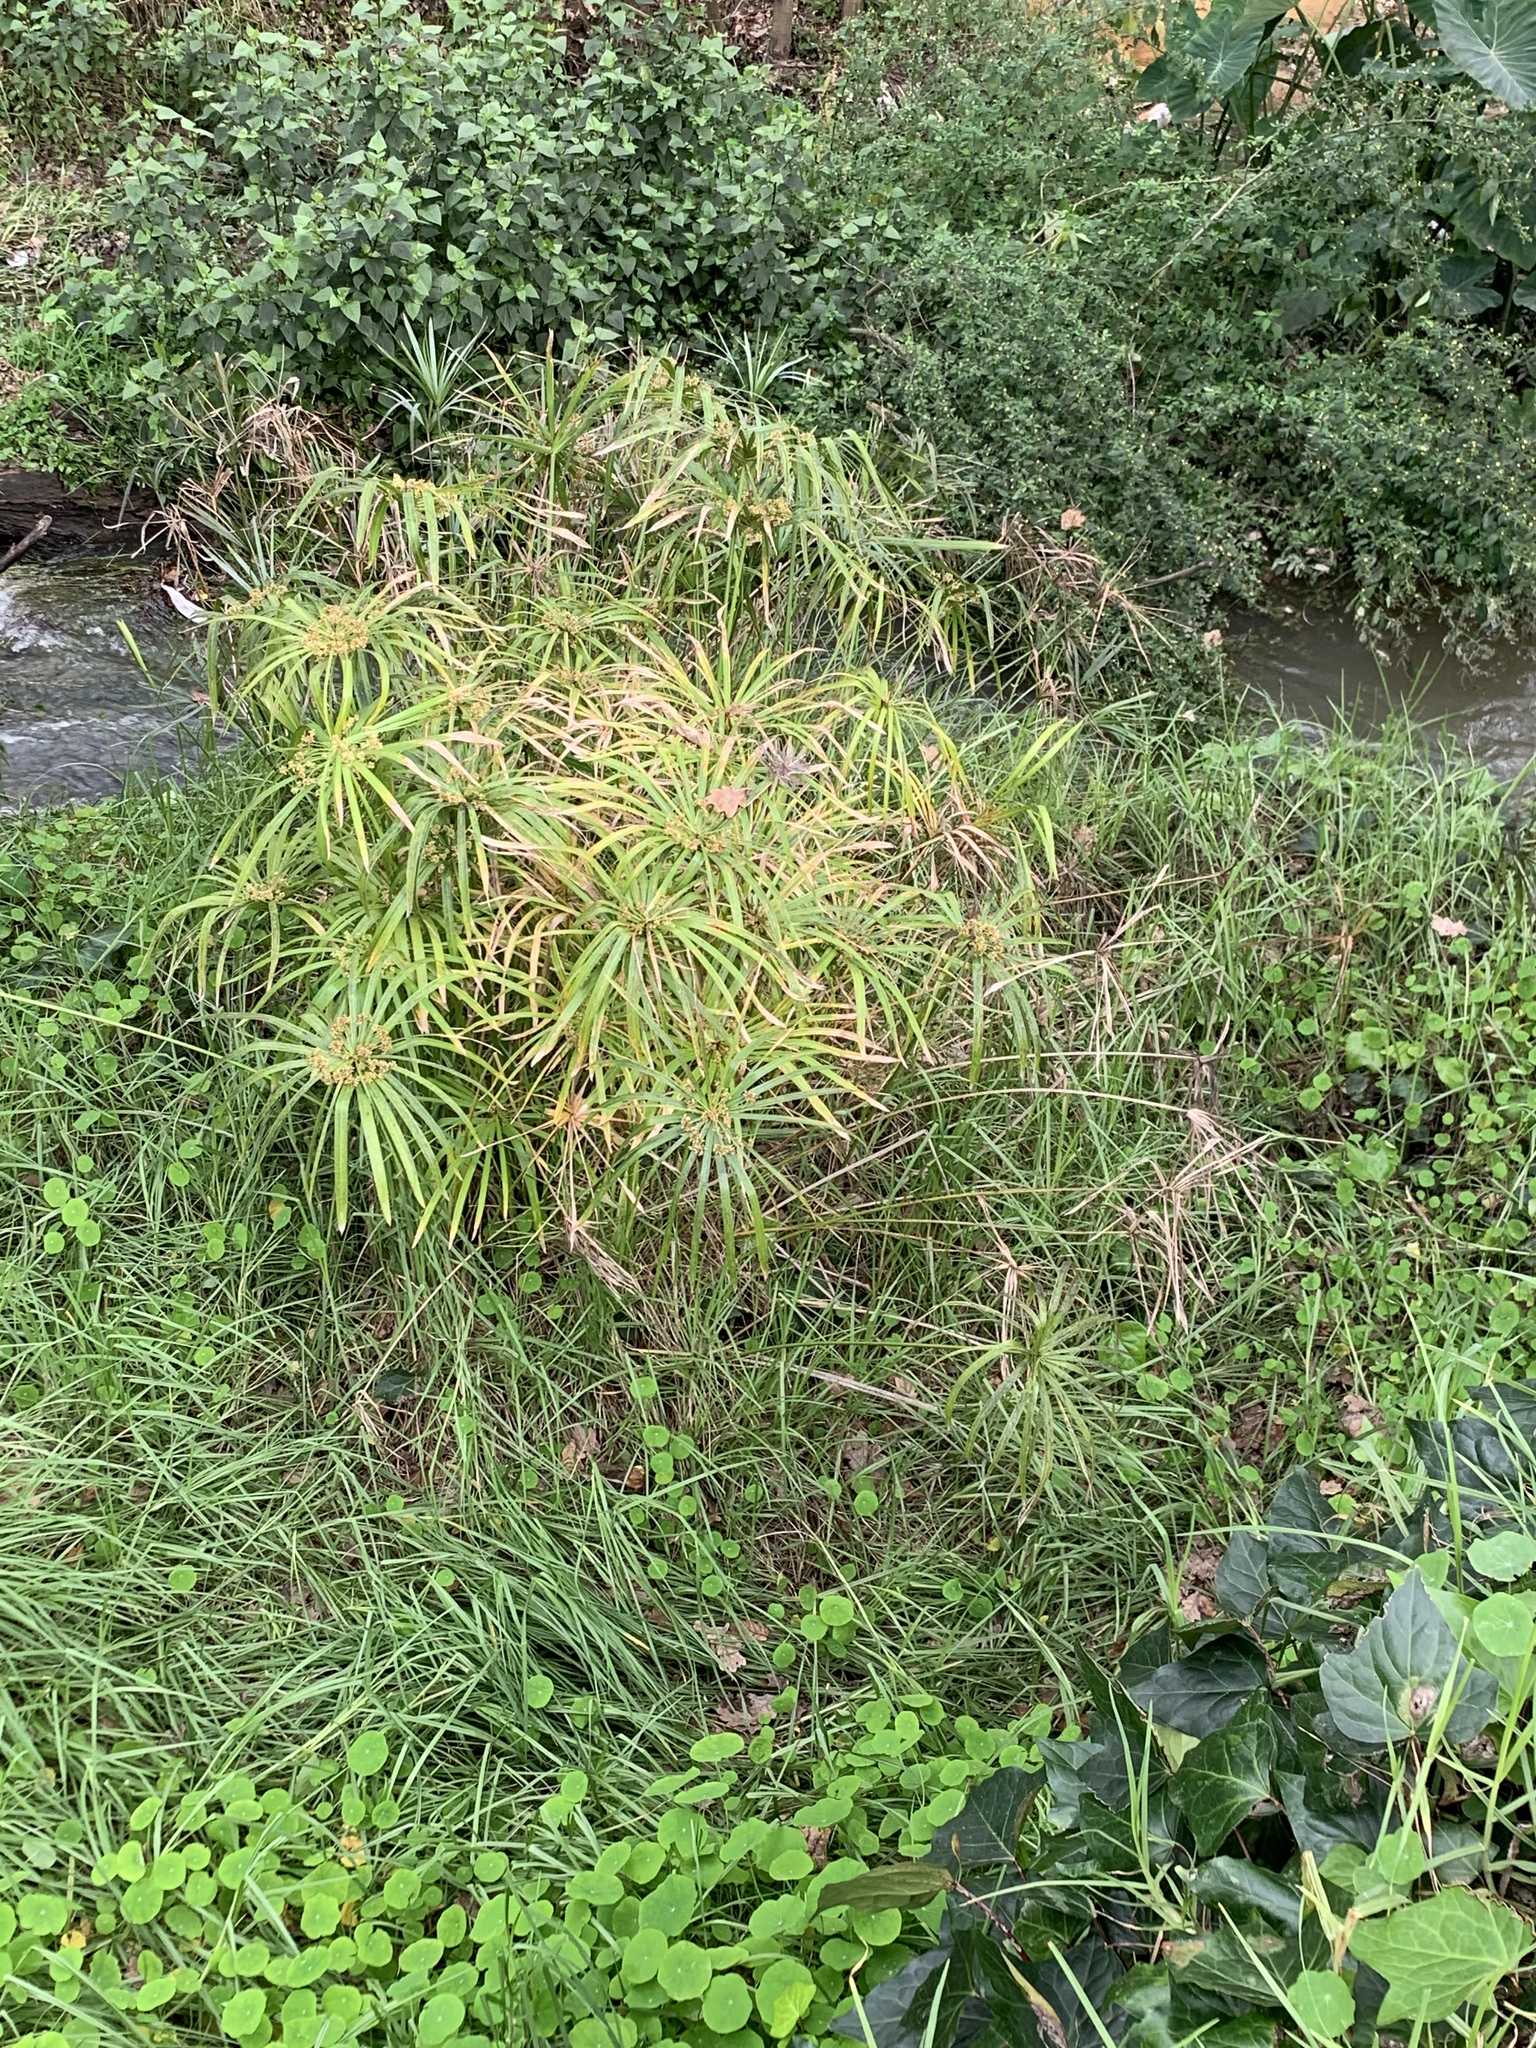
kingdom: Plantae
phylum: Tracheophyta
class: Liliopsida
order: Poales
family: Cyperaceae
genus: Cyperus
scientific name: Cyperus textilis
